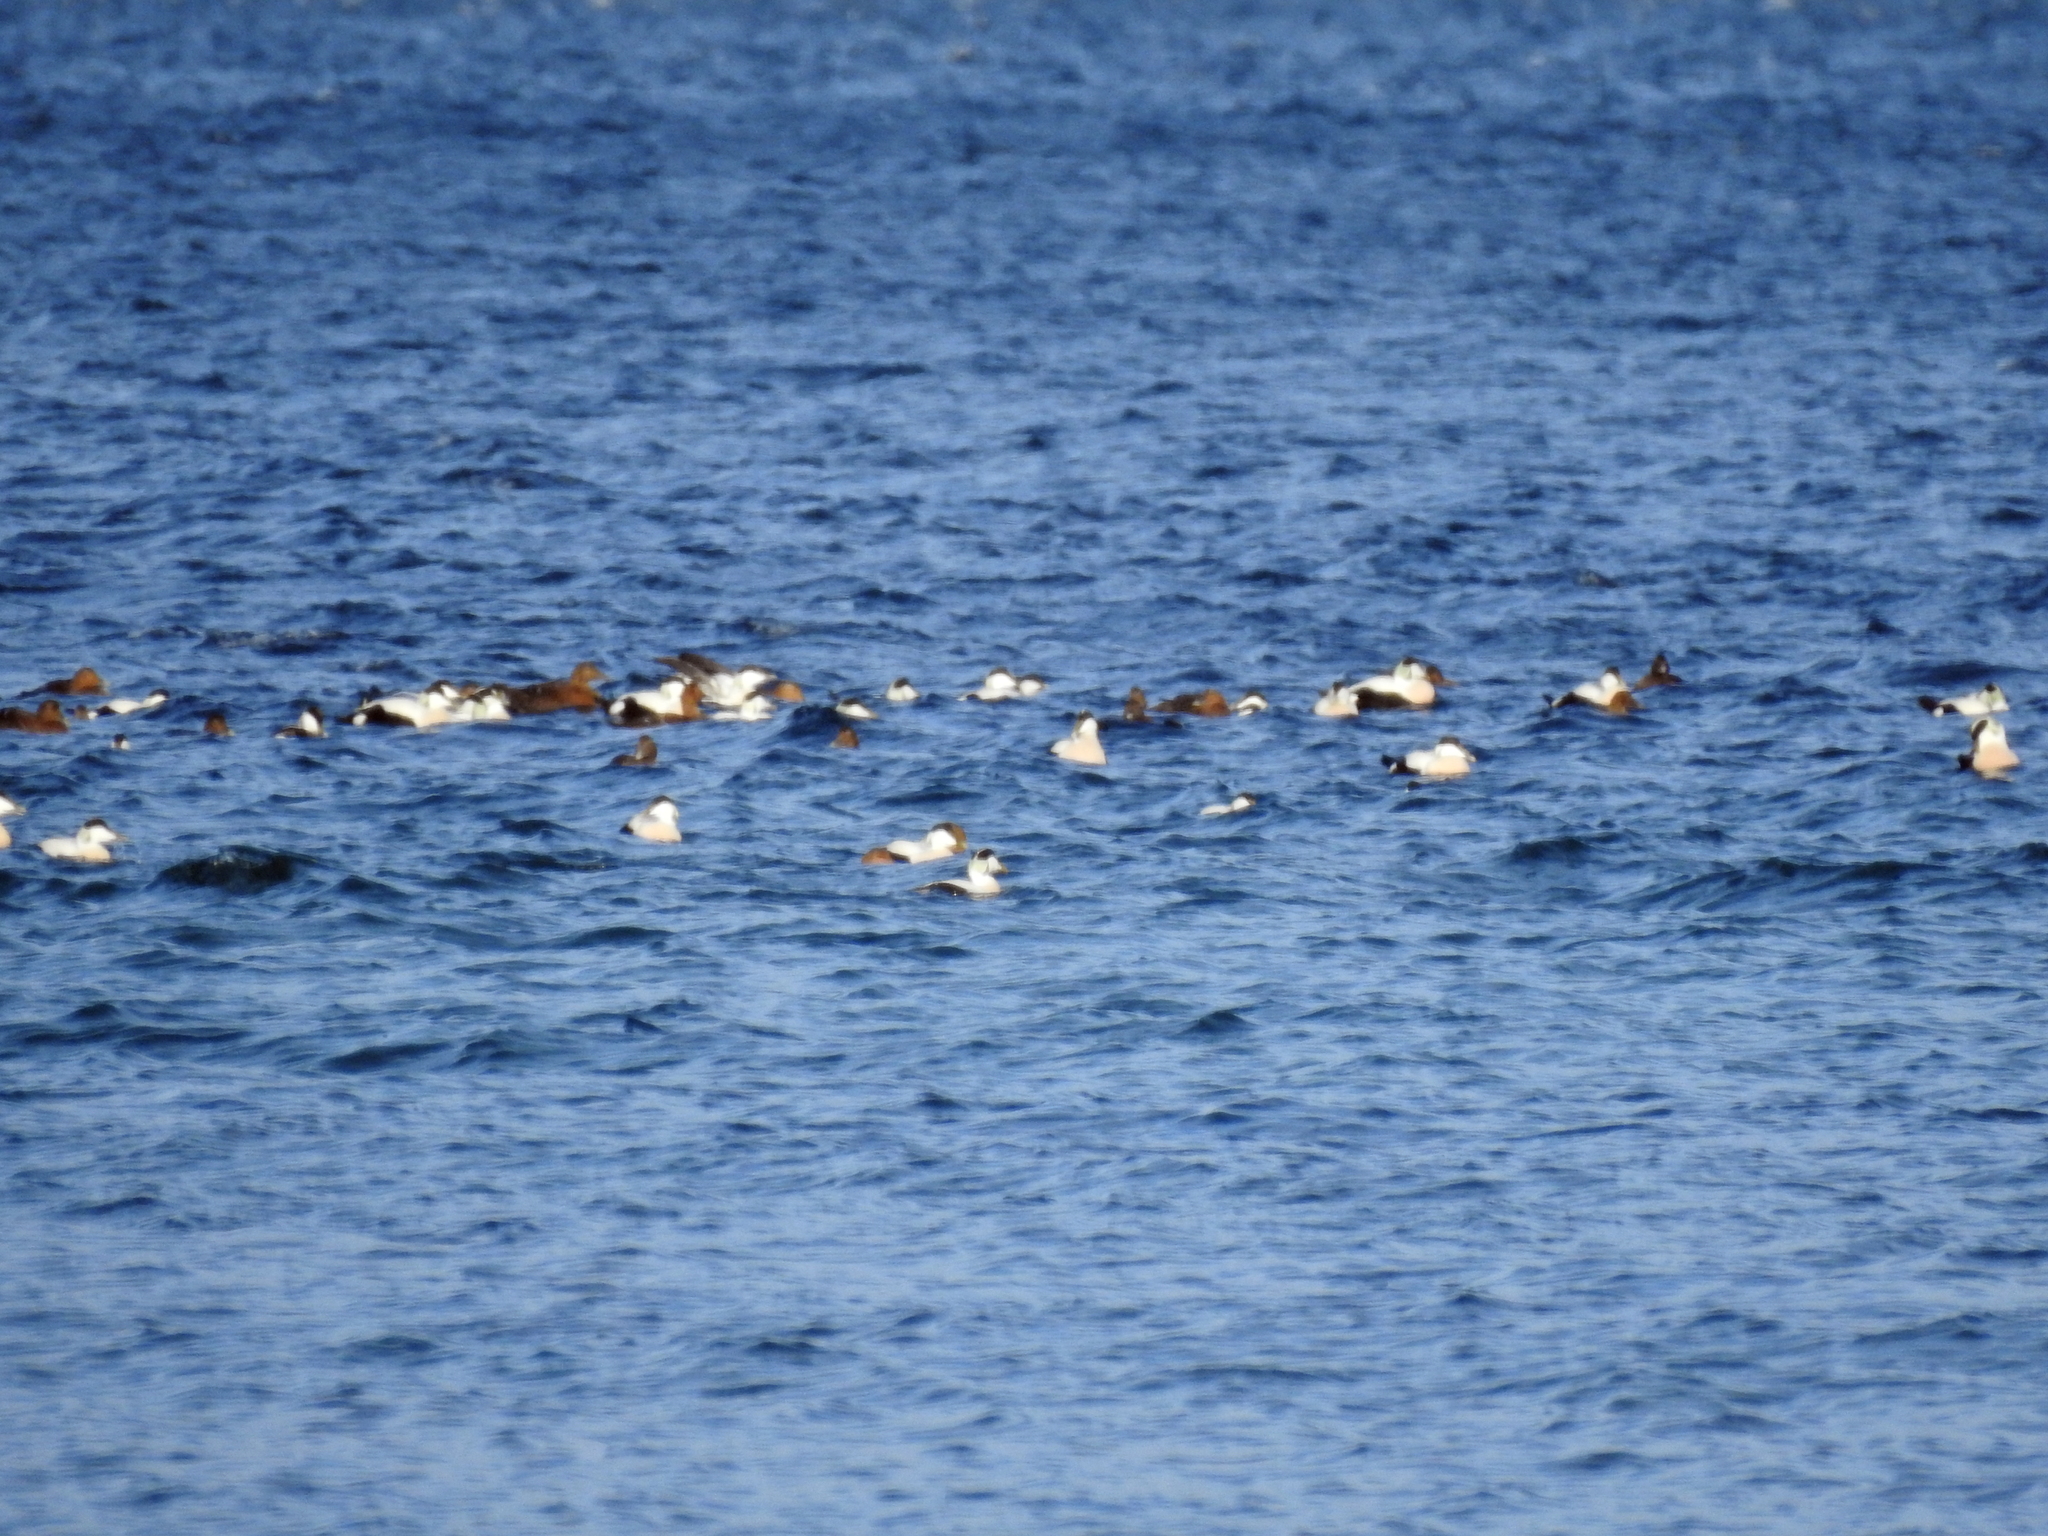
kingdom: Animalia
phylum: Chordata
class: Aves
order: Anseriformes
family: Anatidae
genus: Somateria
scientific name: Somateria mollissima
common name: Common eider
